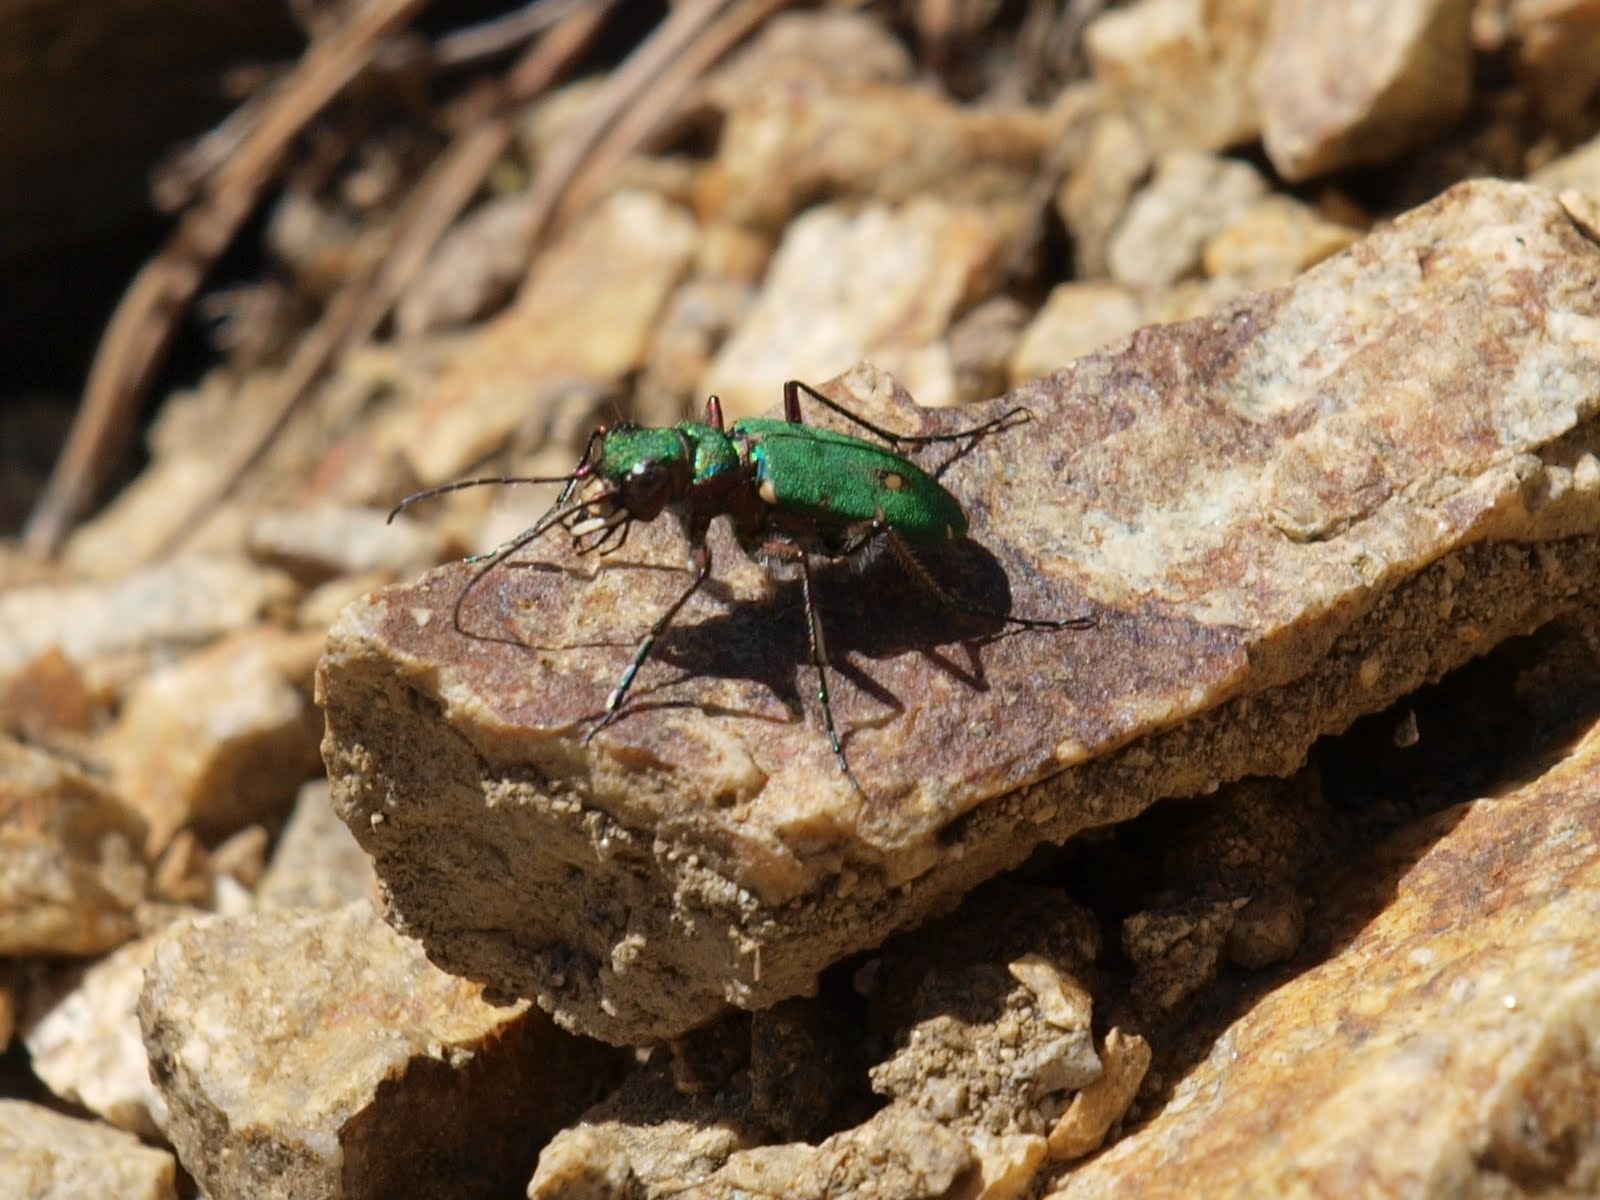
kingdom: Animalia
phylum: Arthropoda
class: Insecta
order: Coleoptera
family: Carabidae
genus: Cicindela
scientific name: Cicindela campestris
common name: Common tiger beetle
